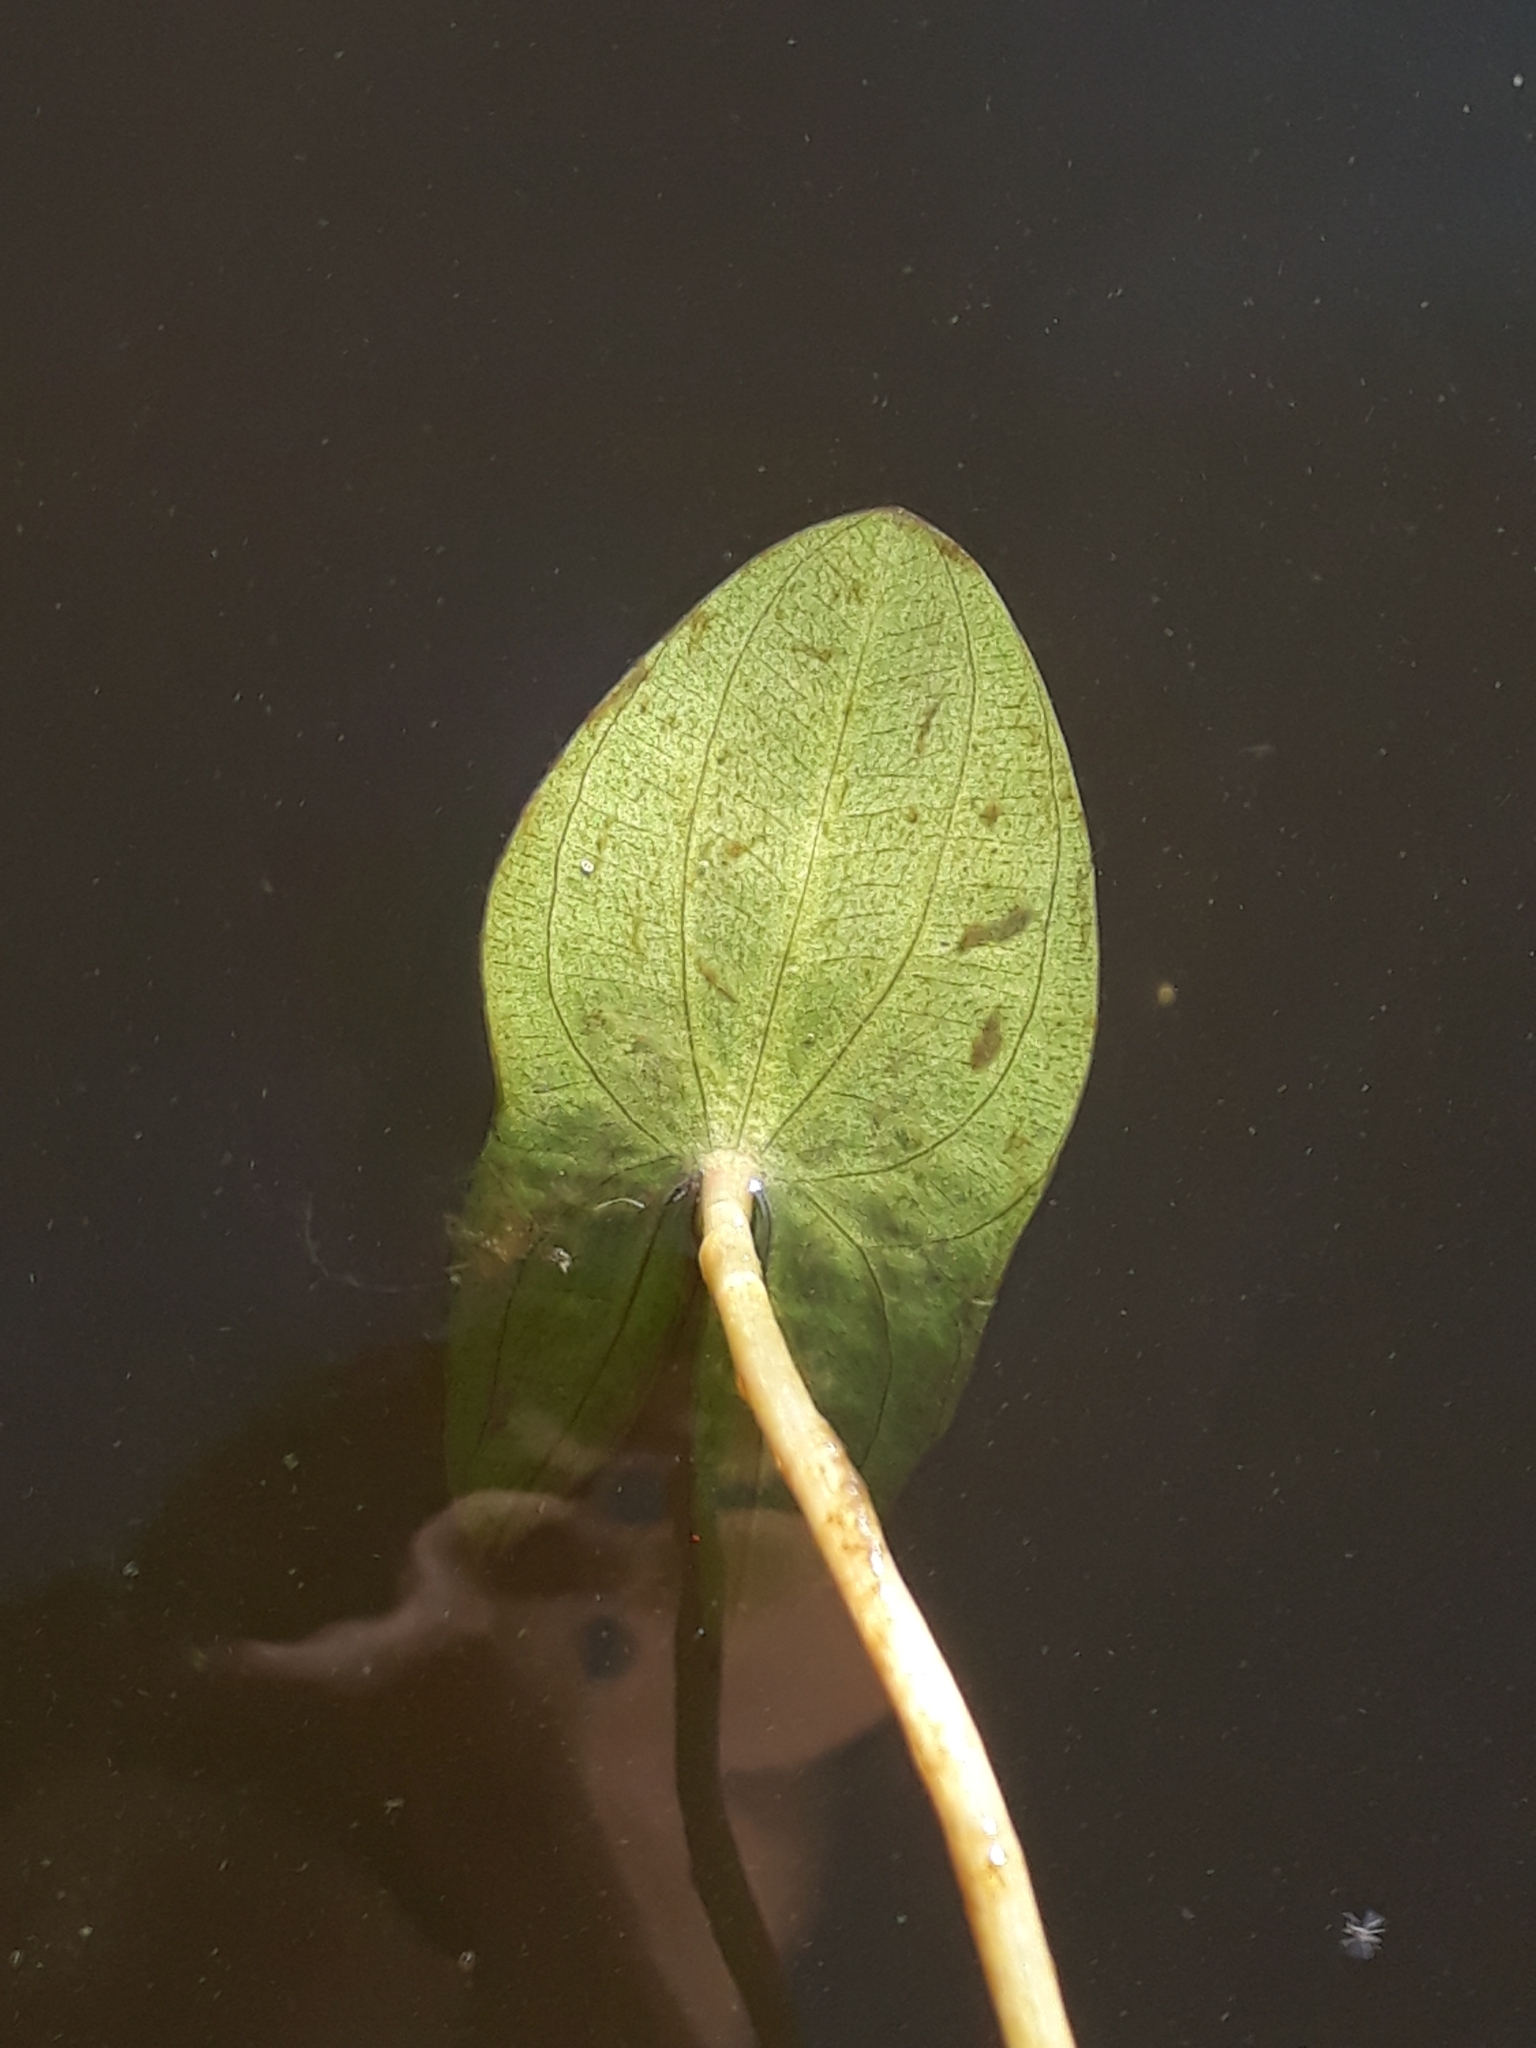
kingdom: Plantae
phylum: Tracheophyta
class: Liliopsida
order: Alismatales
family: Alismataceae
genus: Sagittaria
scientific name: Sagittaria sagittifolia
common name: Arrowhead
